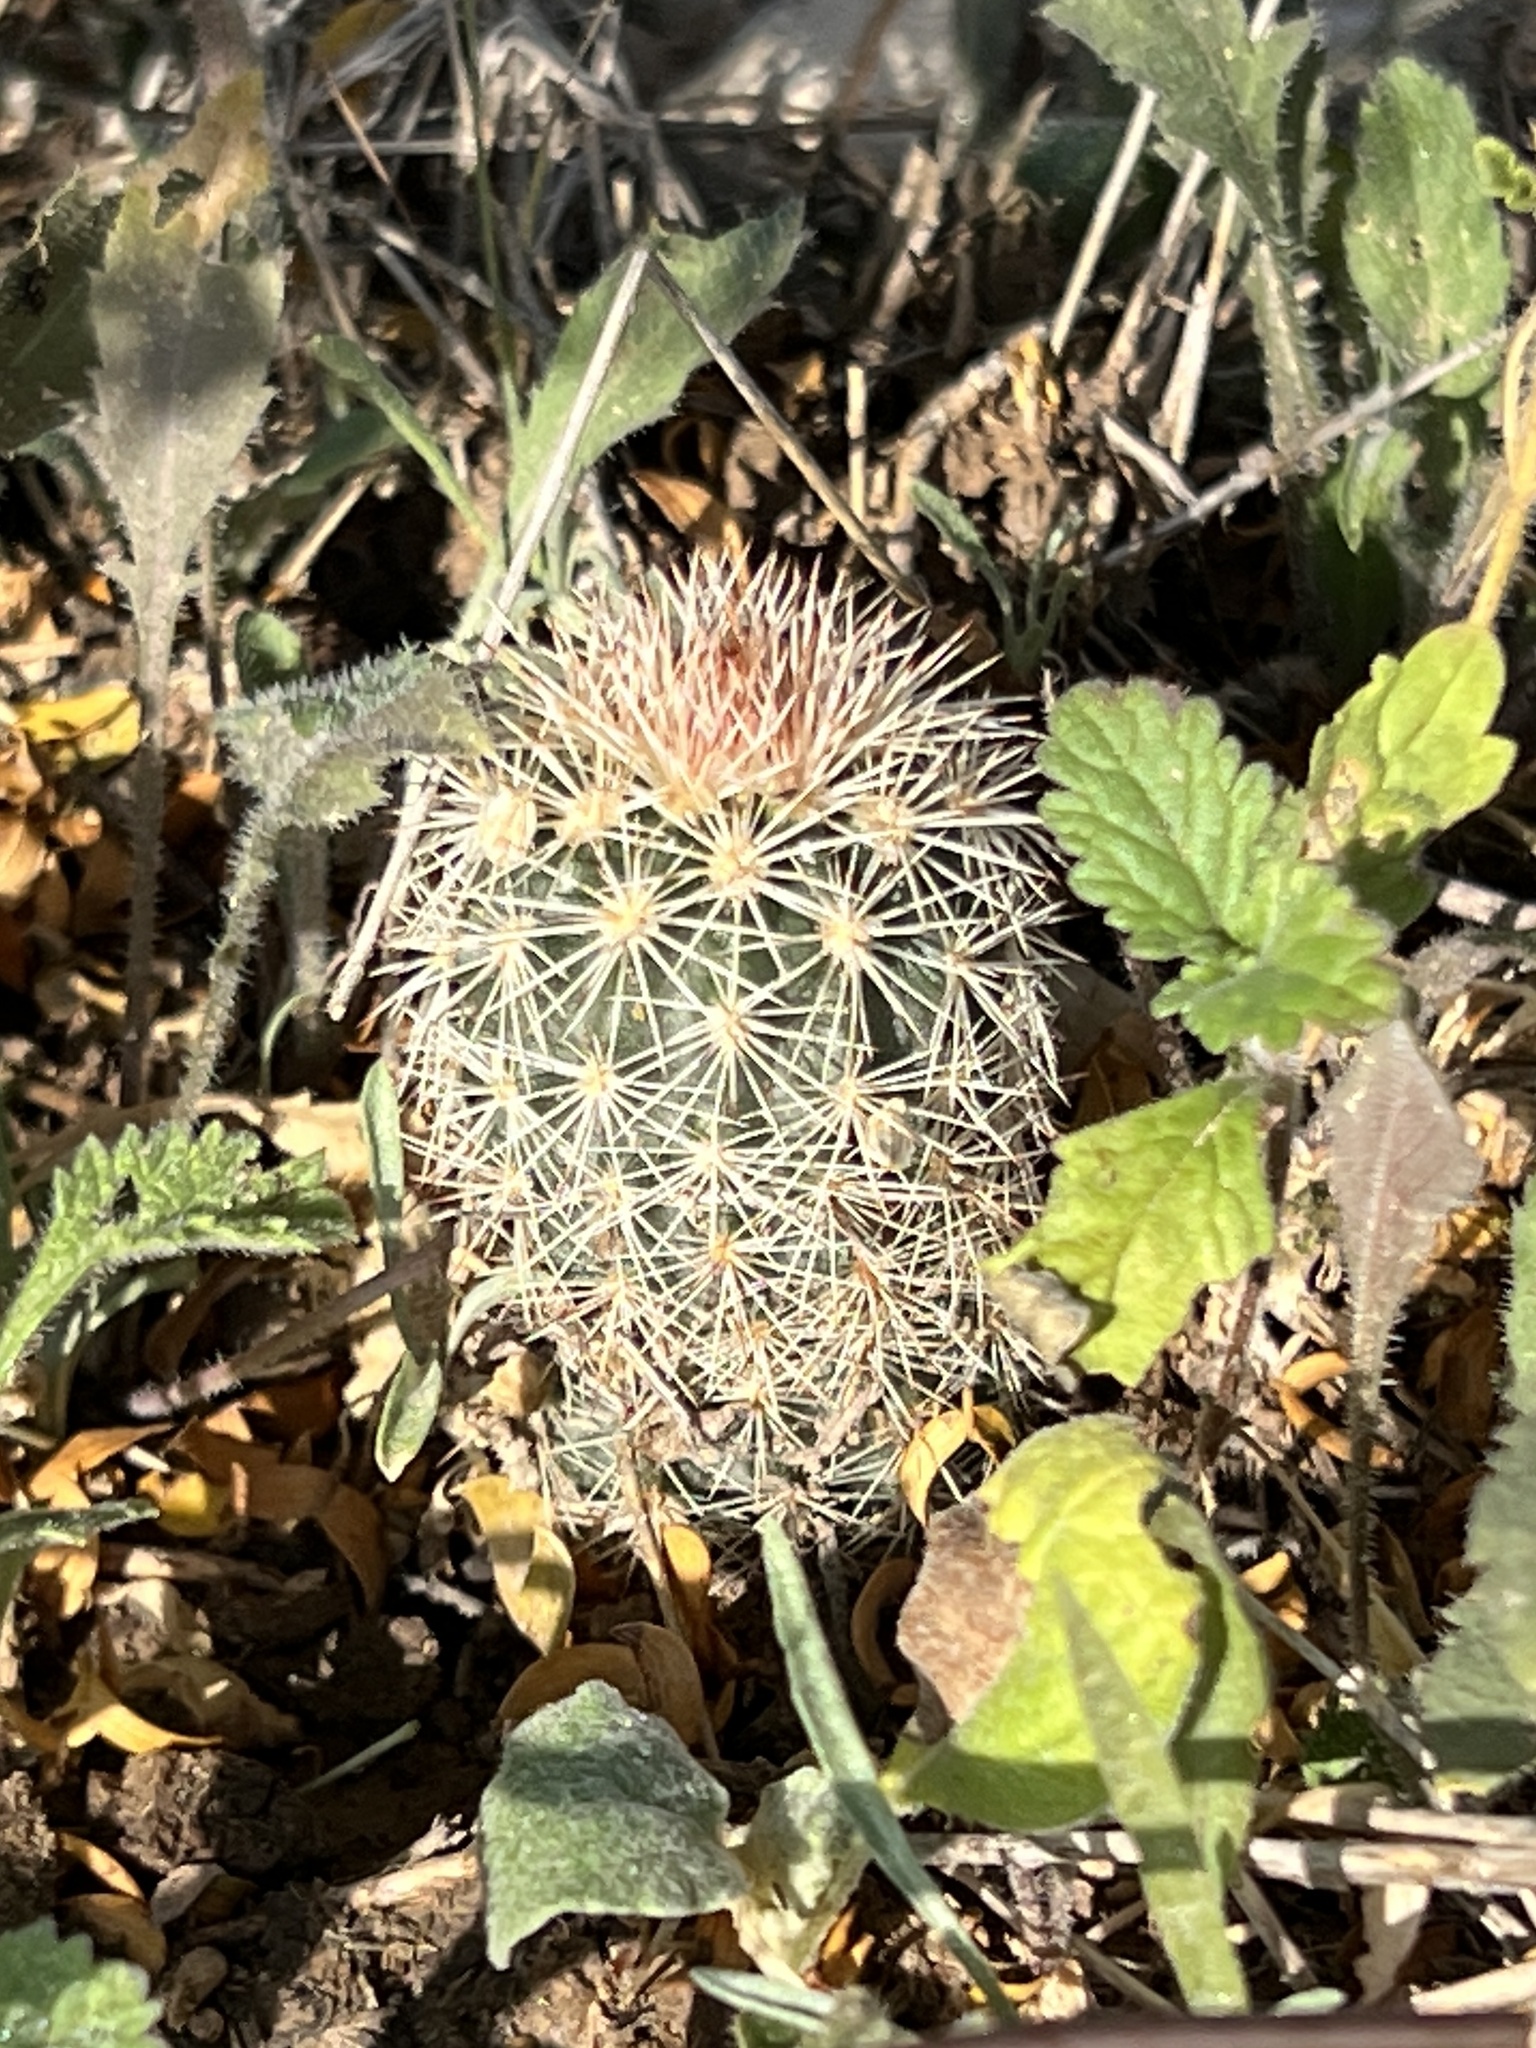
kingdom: Plantae
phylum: Tracheophyta
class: Magnoliopsida
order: Caryophyllales
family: Cactaceae
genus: Echinocereus
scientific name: Echinocereus dasyacanthus
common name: Spiny hedgehog cactus
